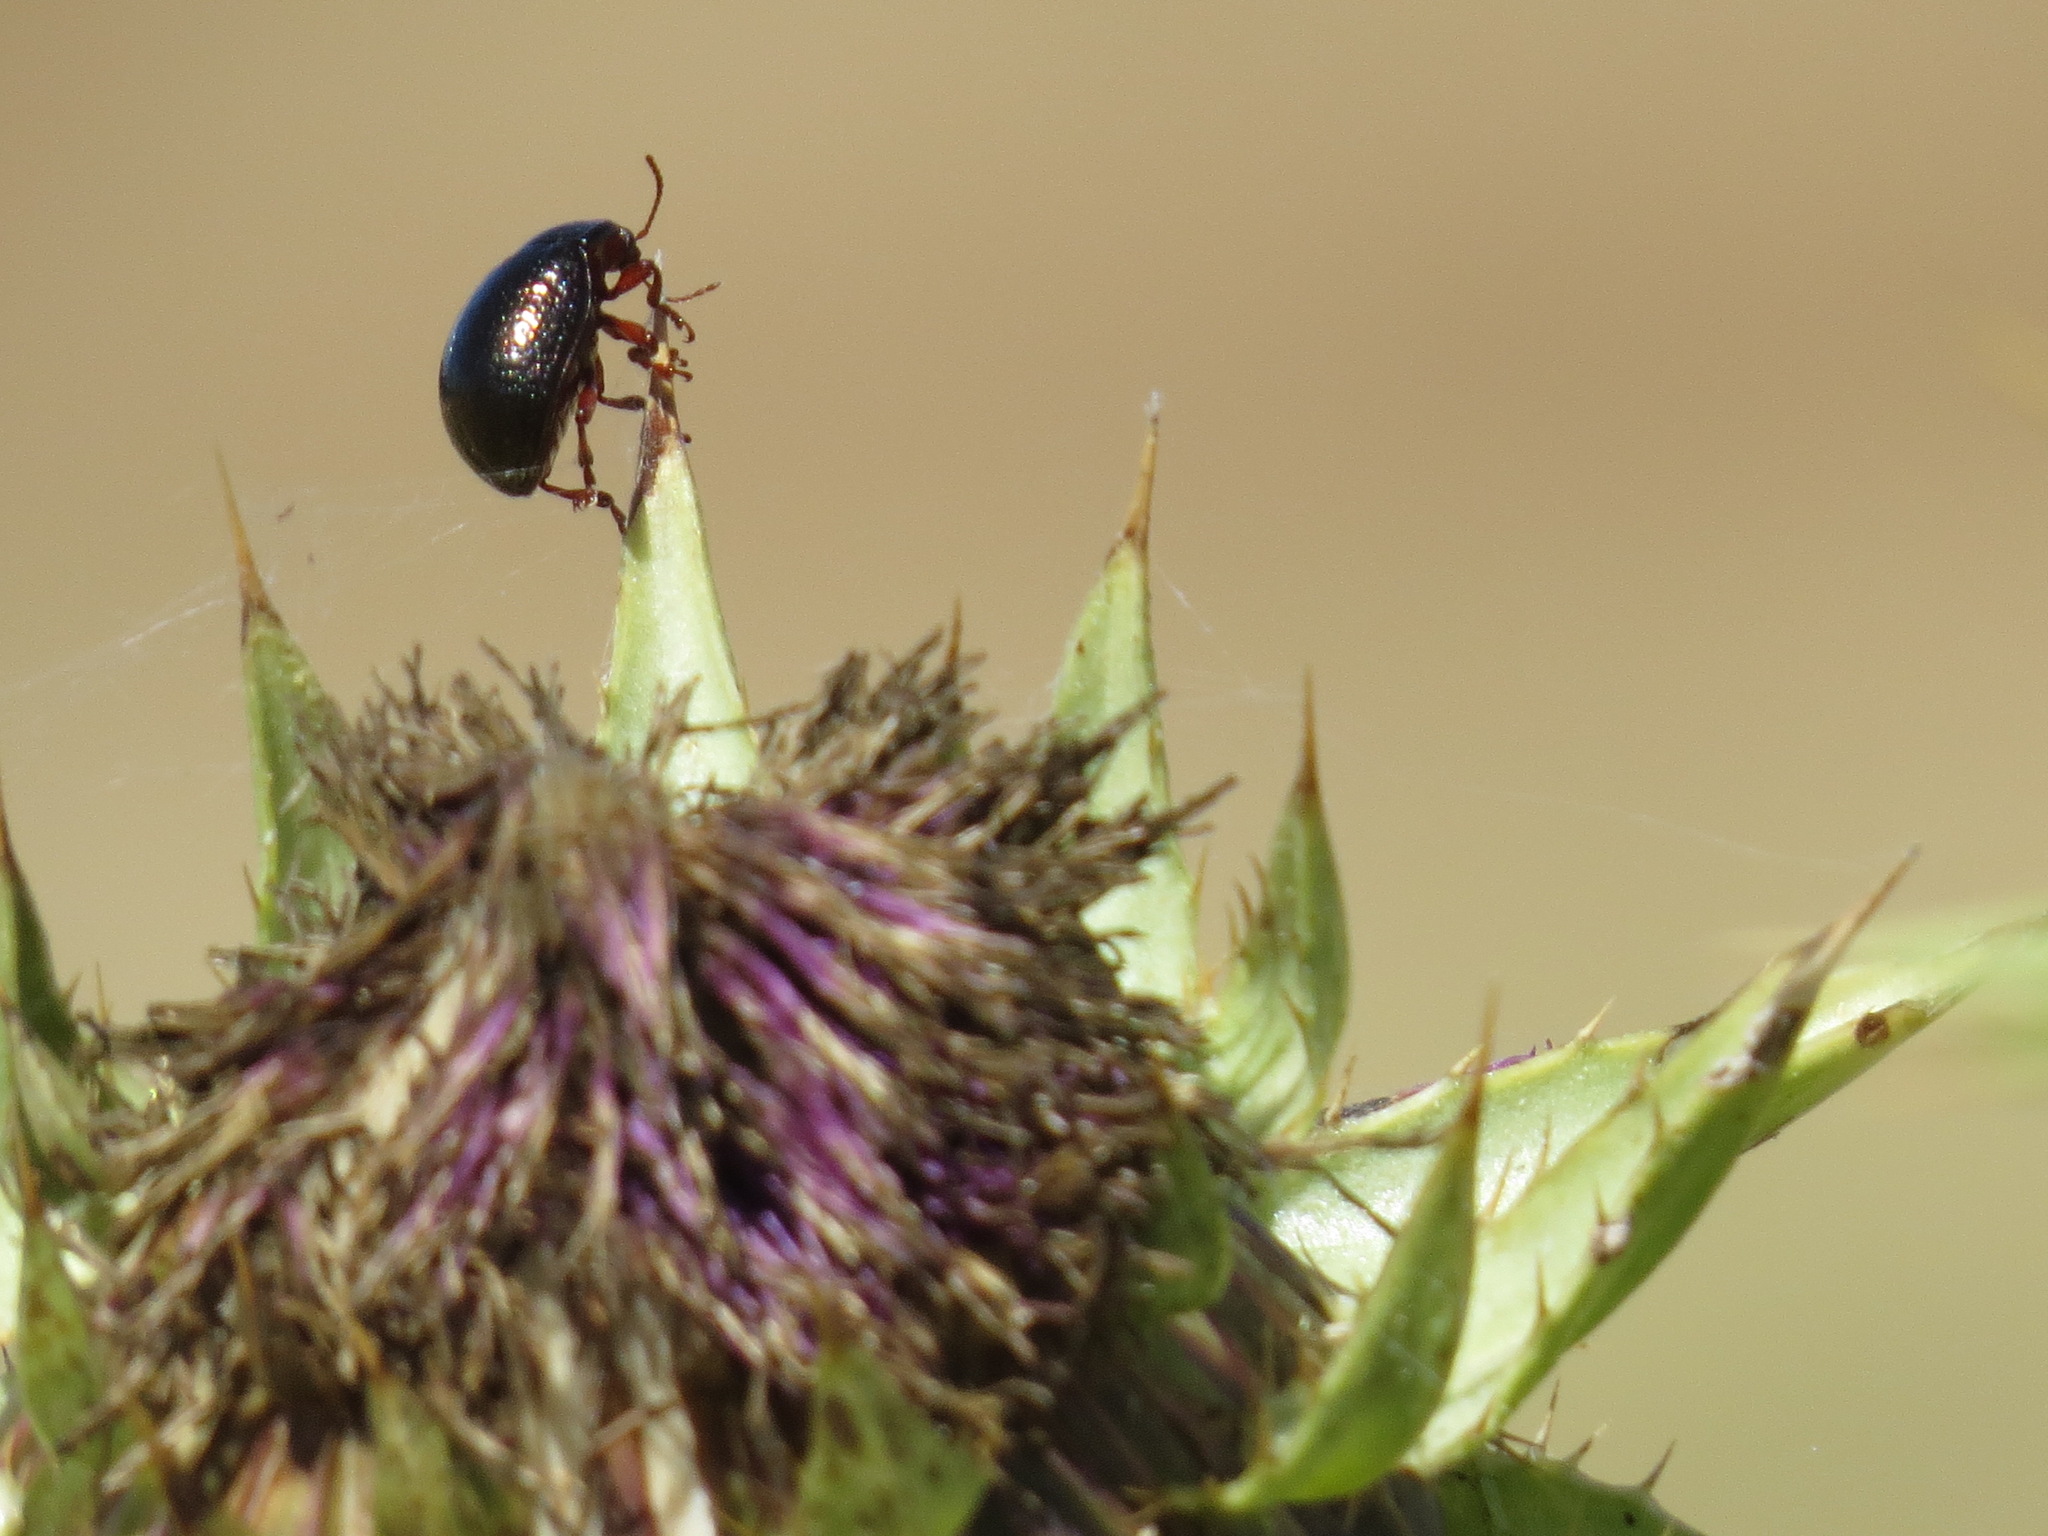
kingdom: Animalia
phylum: Arthropoda
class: Insecta
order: Coleoptera
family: Chrysomelidae
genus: Chrysolina
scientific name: Chrysolina bankii
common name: Leaf beetle
